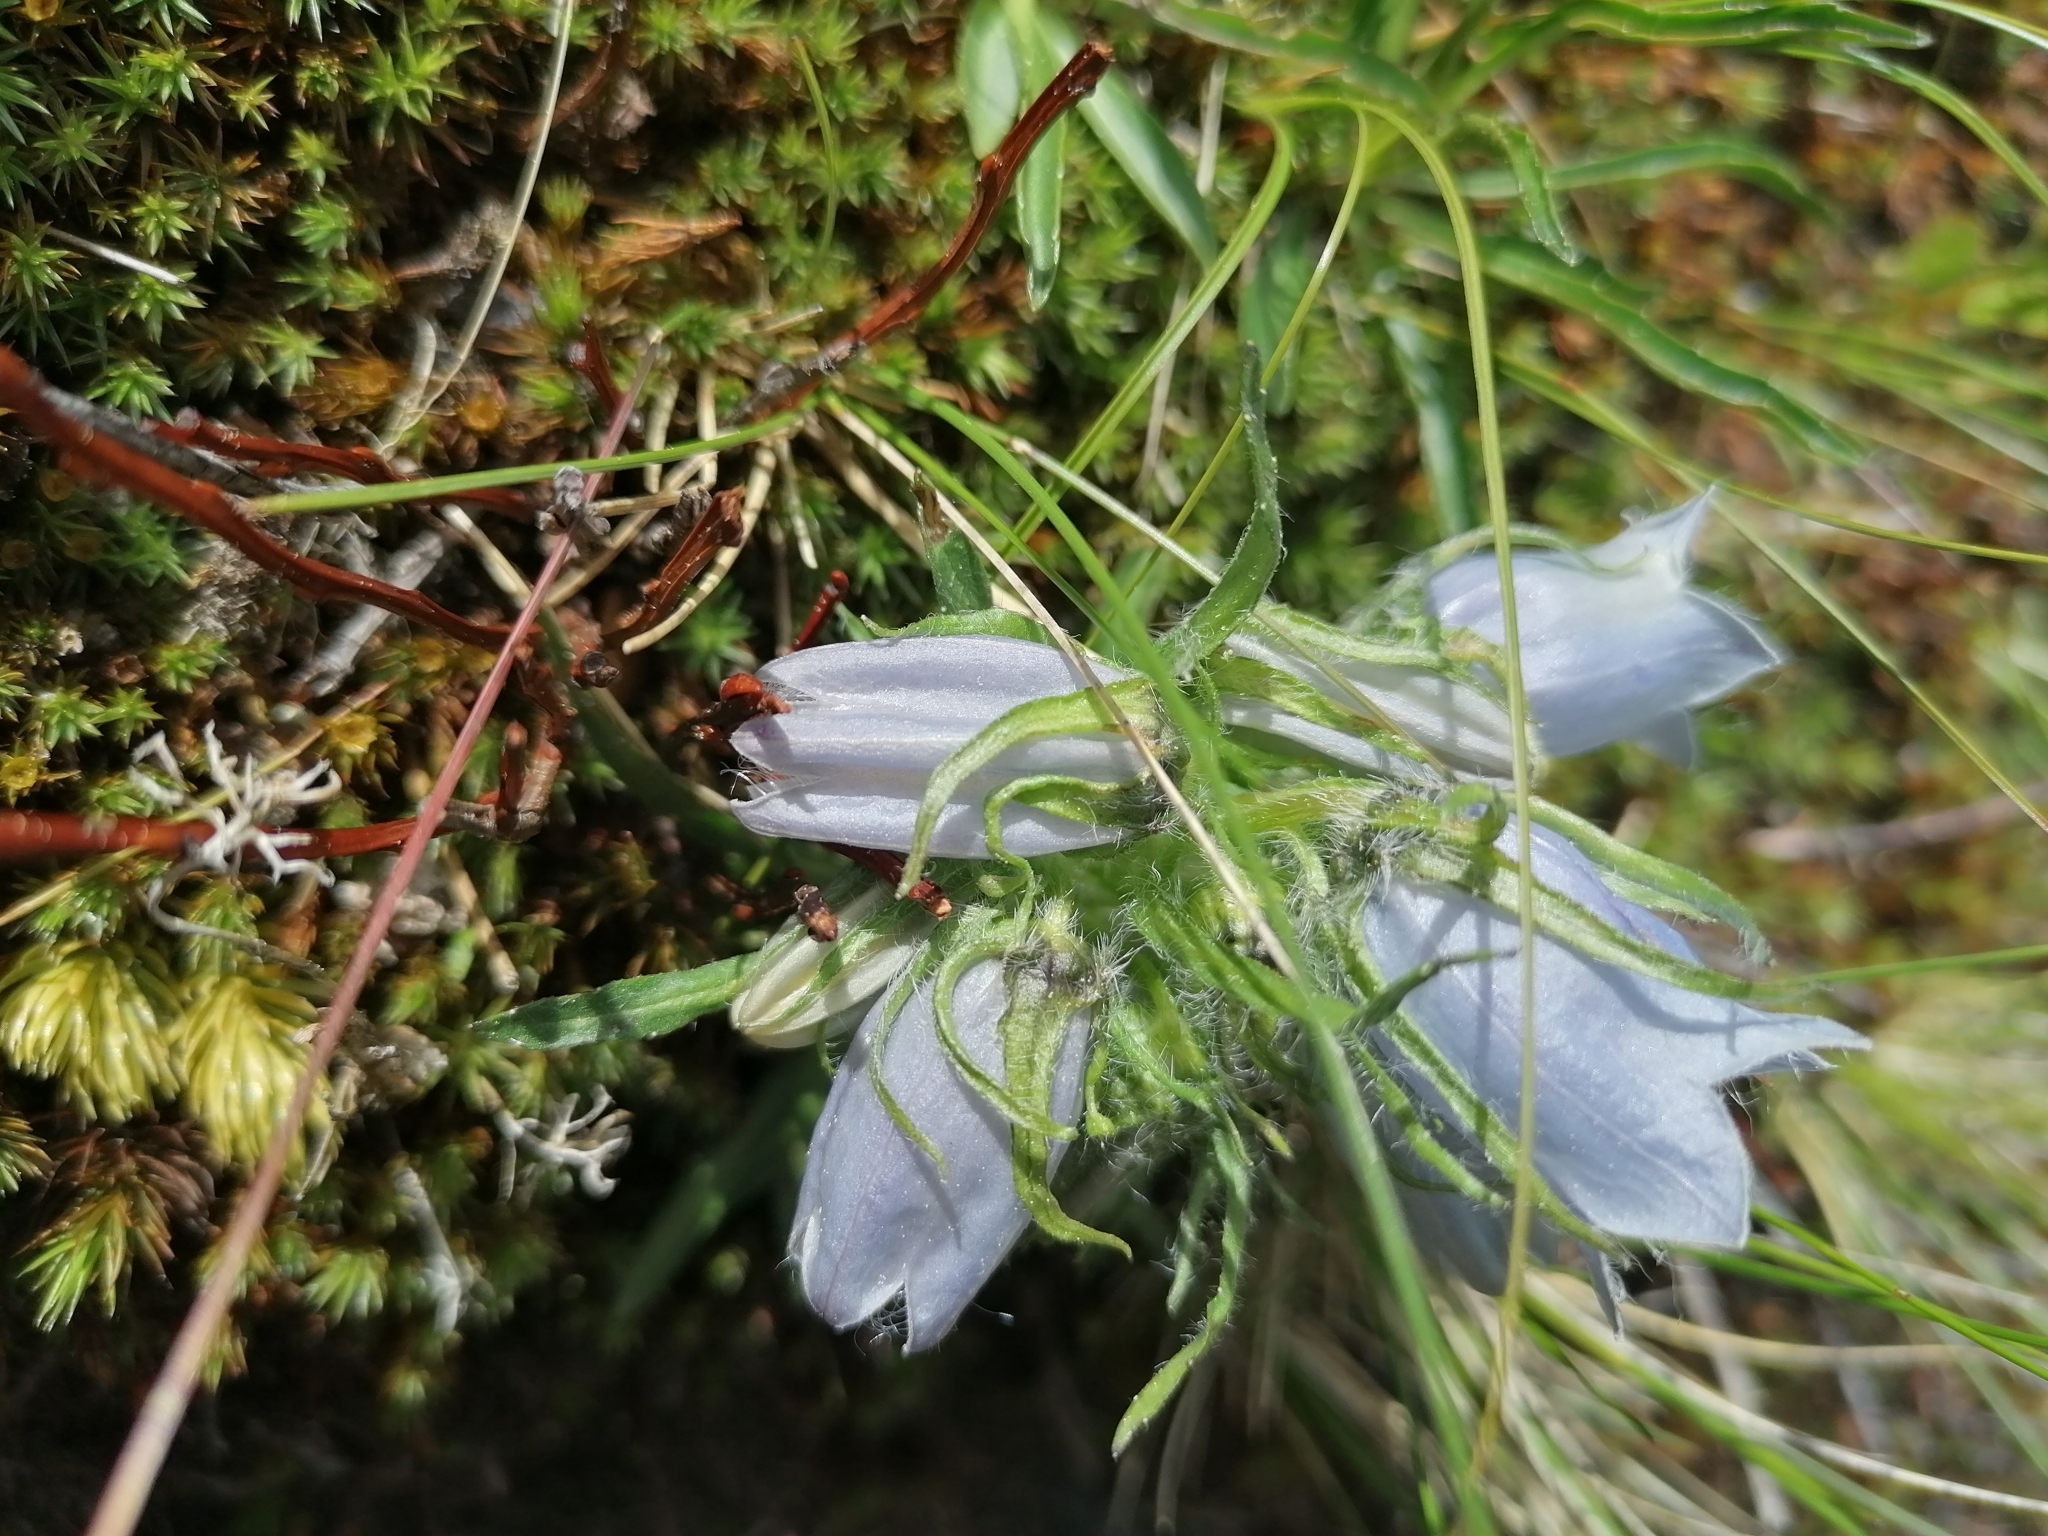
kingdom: Plantae
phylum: Tracheophyta
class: Magnoliopsida
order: Asterales
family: Campanulaceae
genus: Campanula
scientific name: Campanula alpina
